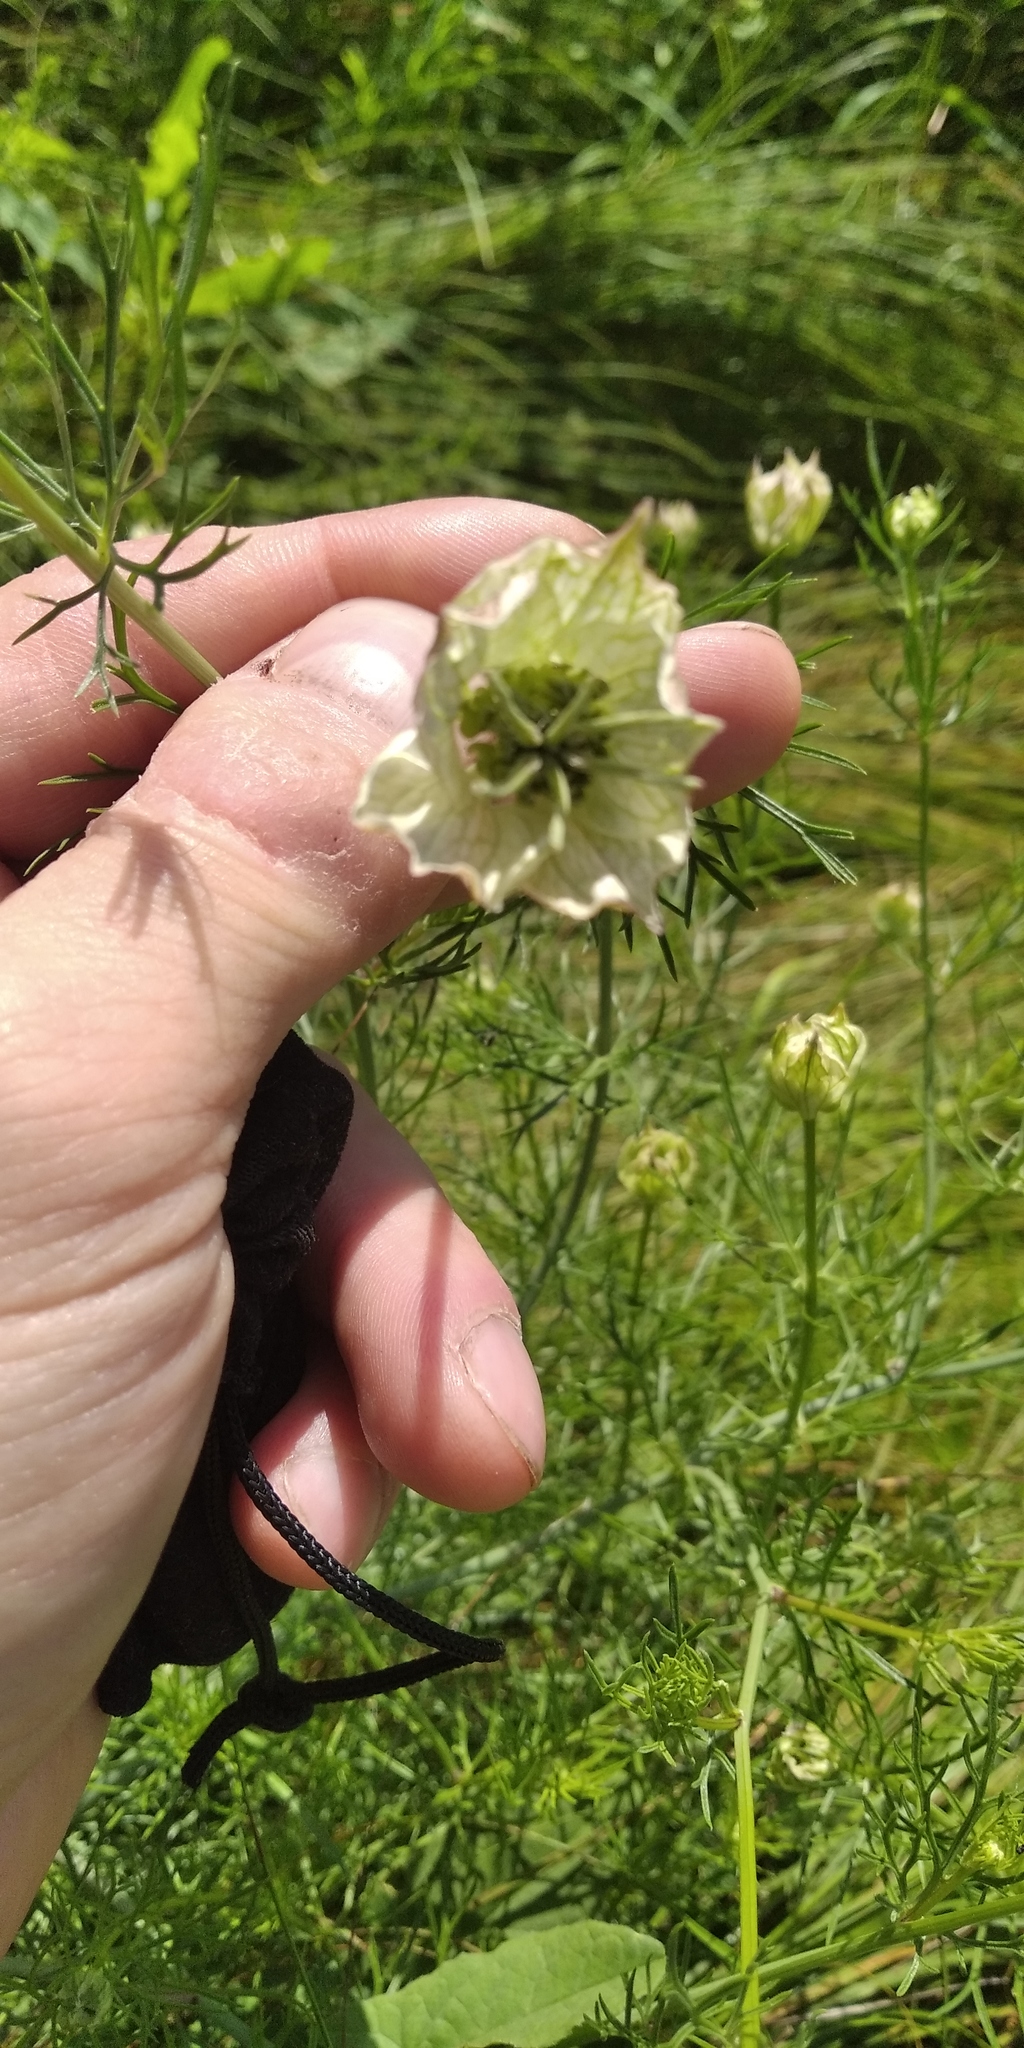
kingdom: Plantae
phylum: Tracheophyta
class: Magnoliopsida
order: Ranunculales
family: Ranunculaceae
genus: Nigella
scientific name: Nigella arvensis
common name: Wild fennel-flower
